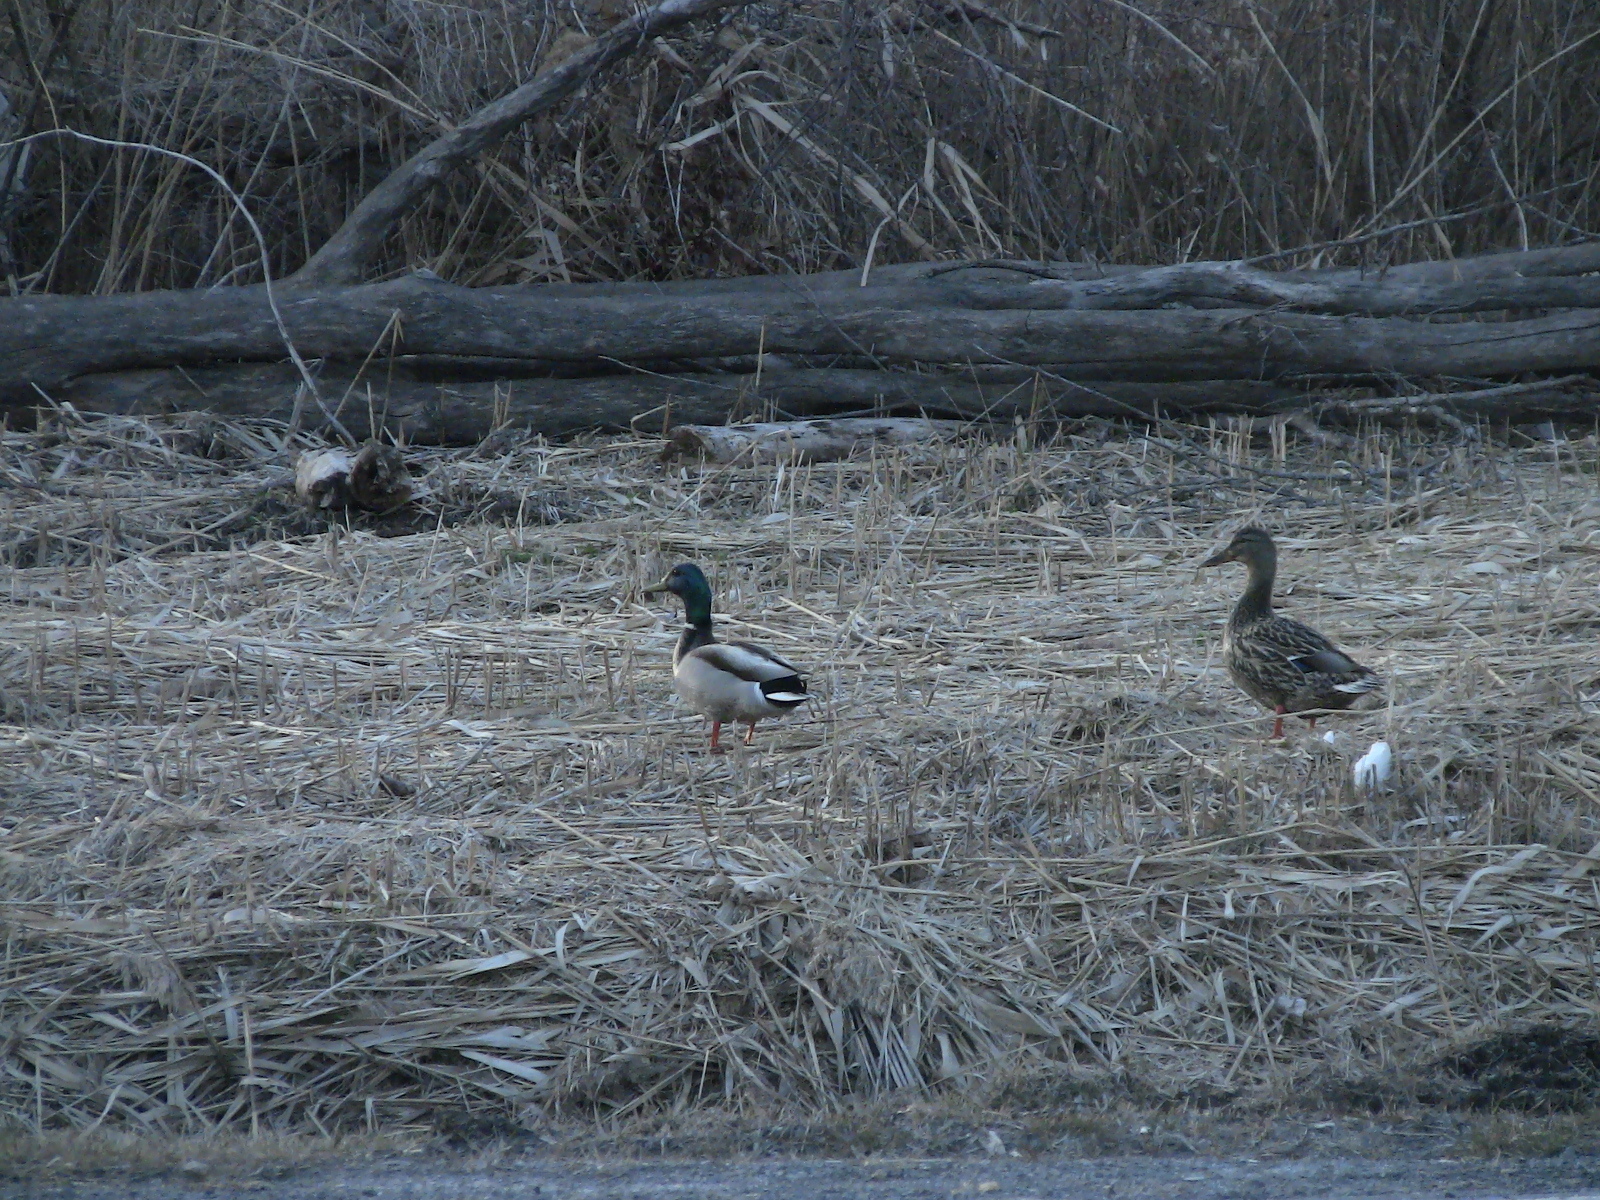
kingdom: Animalia
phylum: Chordata
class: Aves
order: Anseriformes
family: Anatidae
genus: Anas
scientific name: Anas platyrhynchos
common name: Mallard
